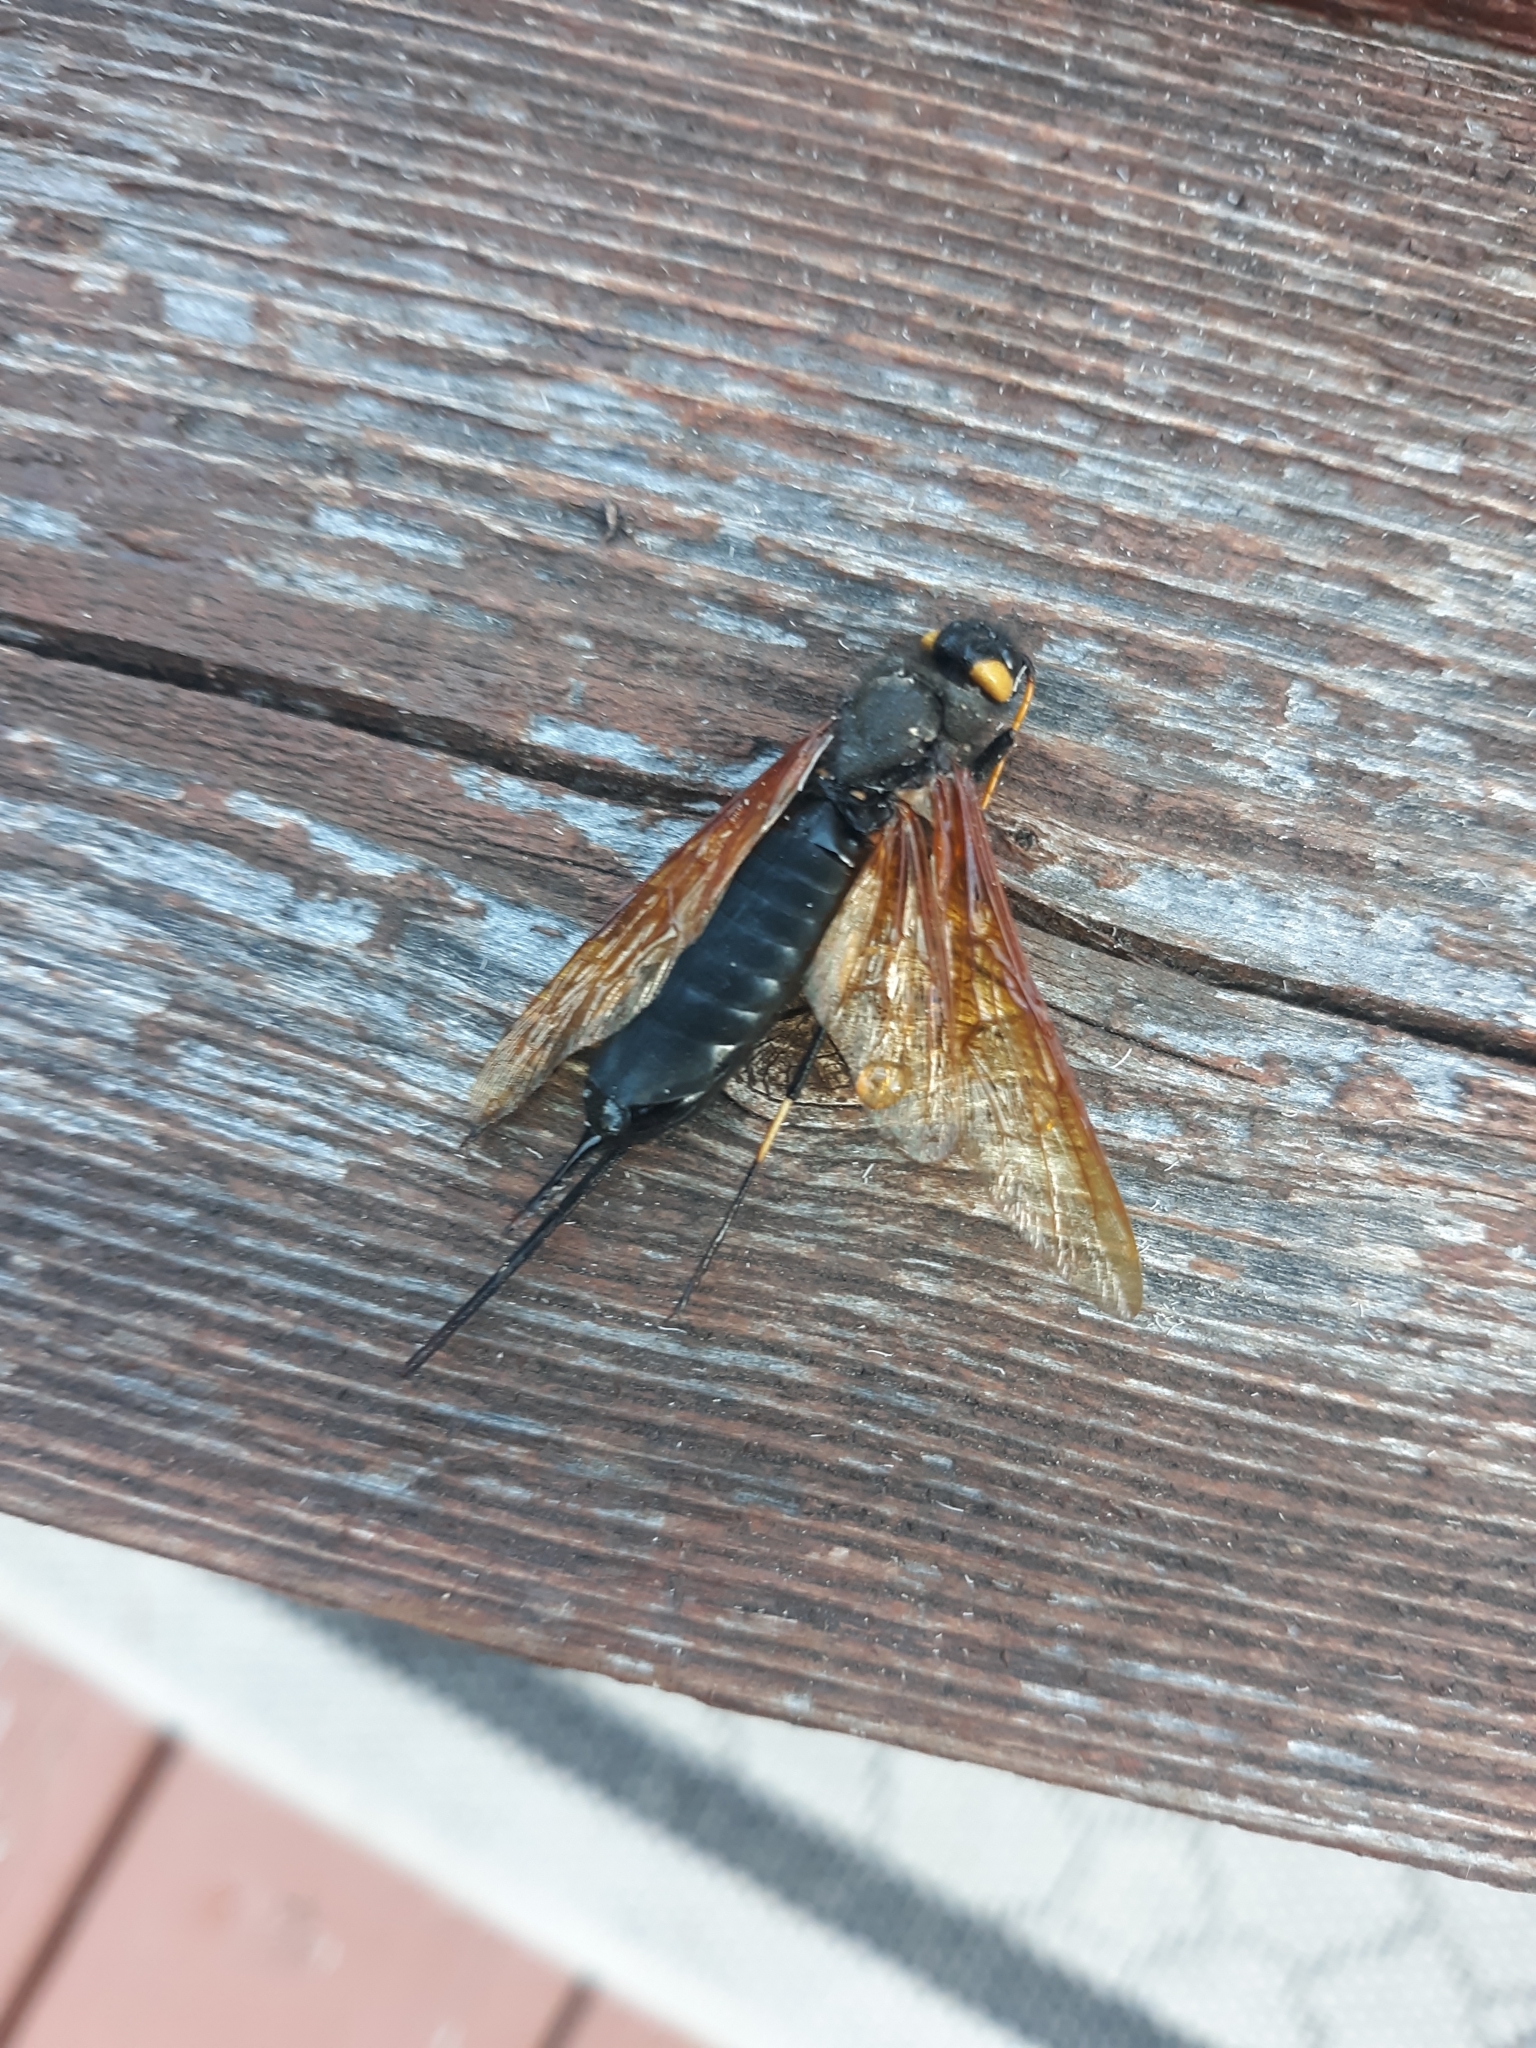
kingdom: Animalia
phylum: Arthropoda
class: Insecta
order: Hymenoptera
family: Siricidae
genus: Urocerus
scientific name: Urocerus californicus
